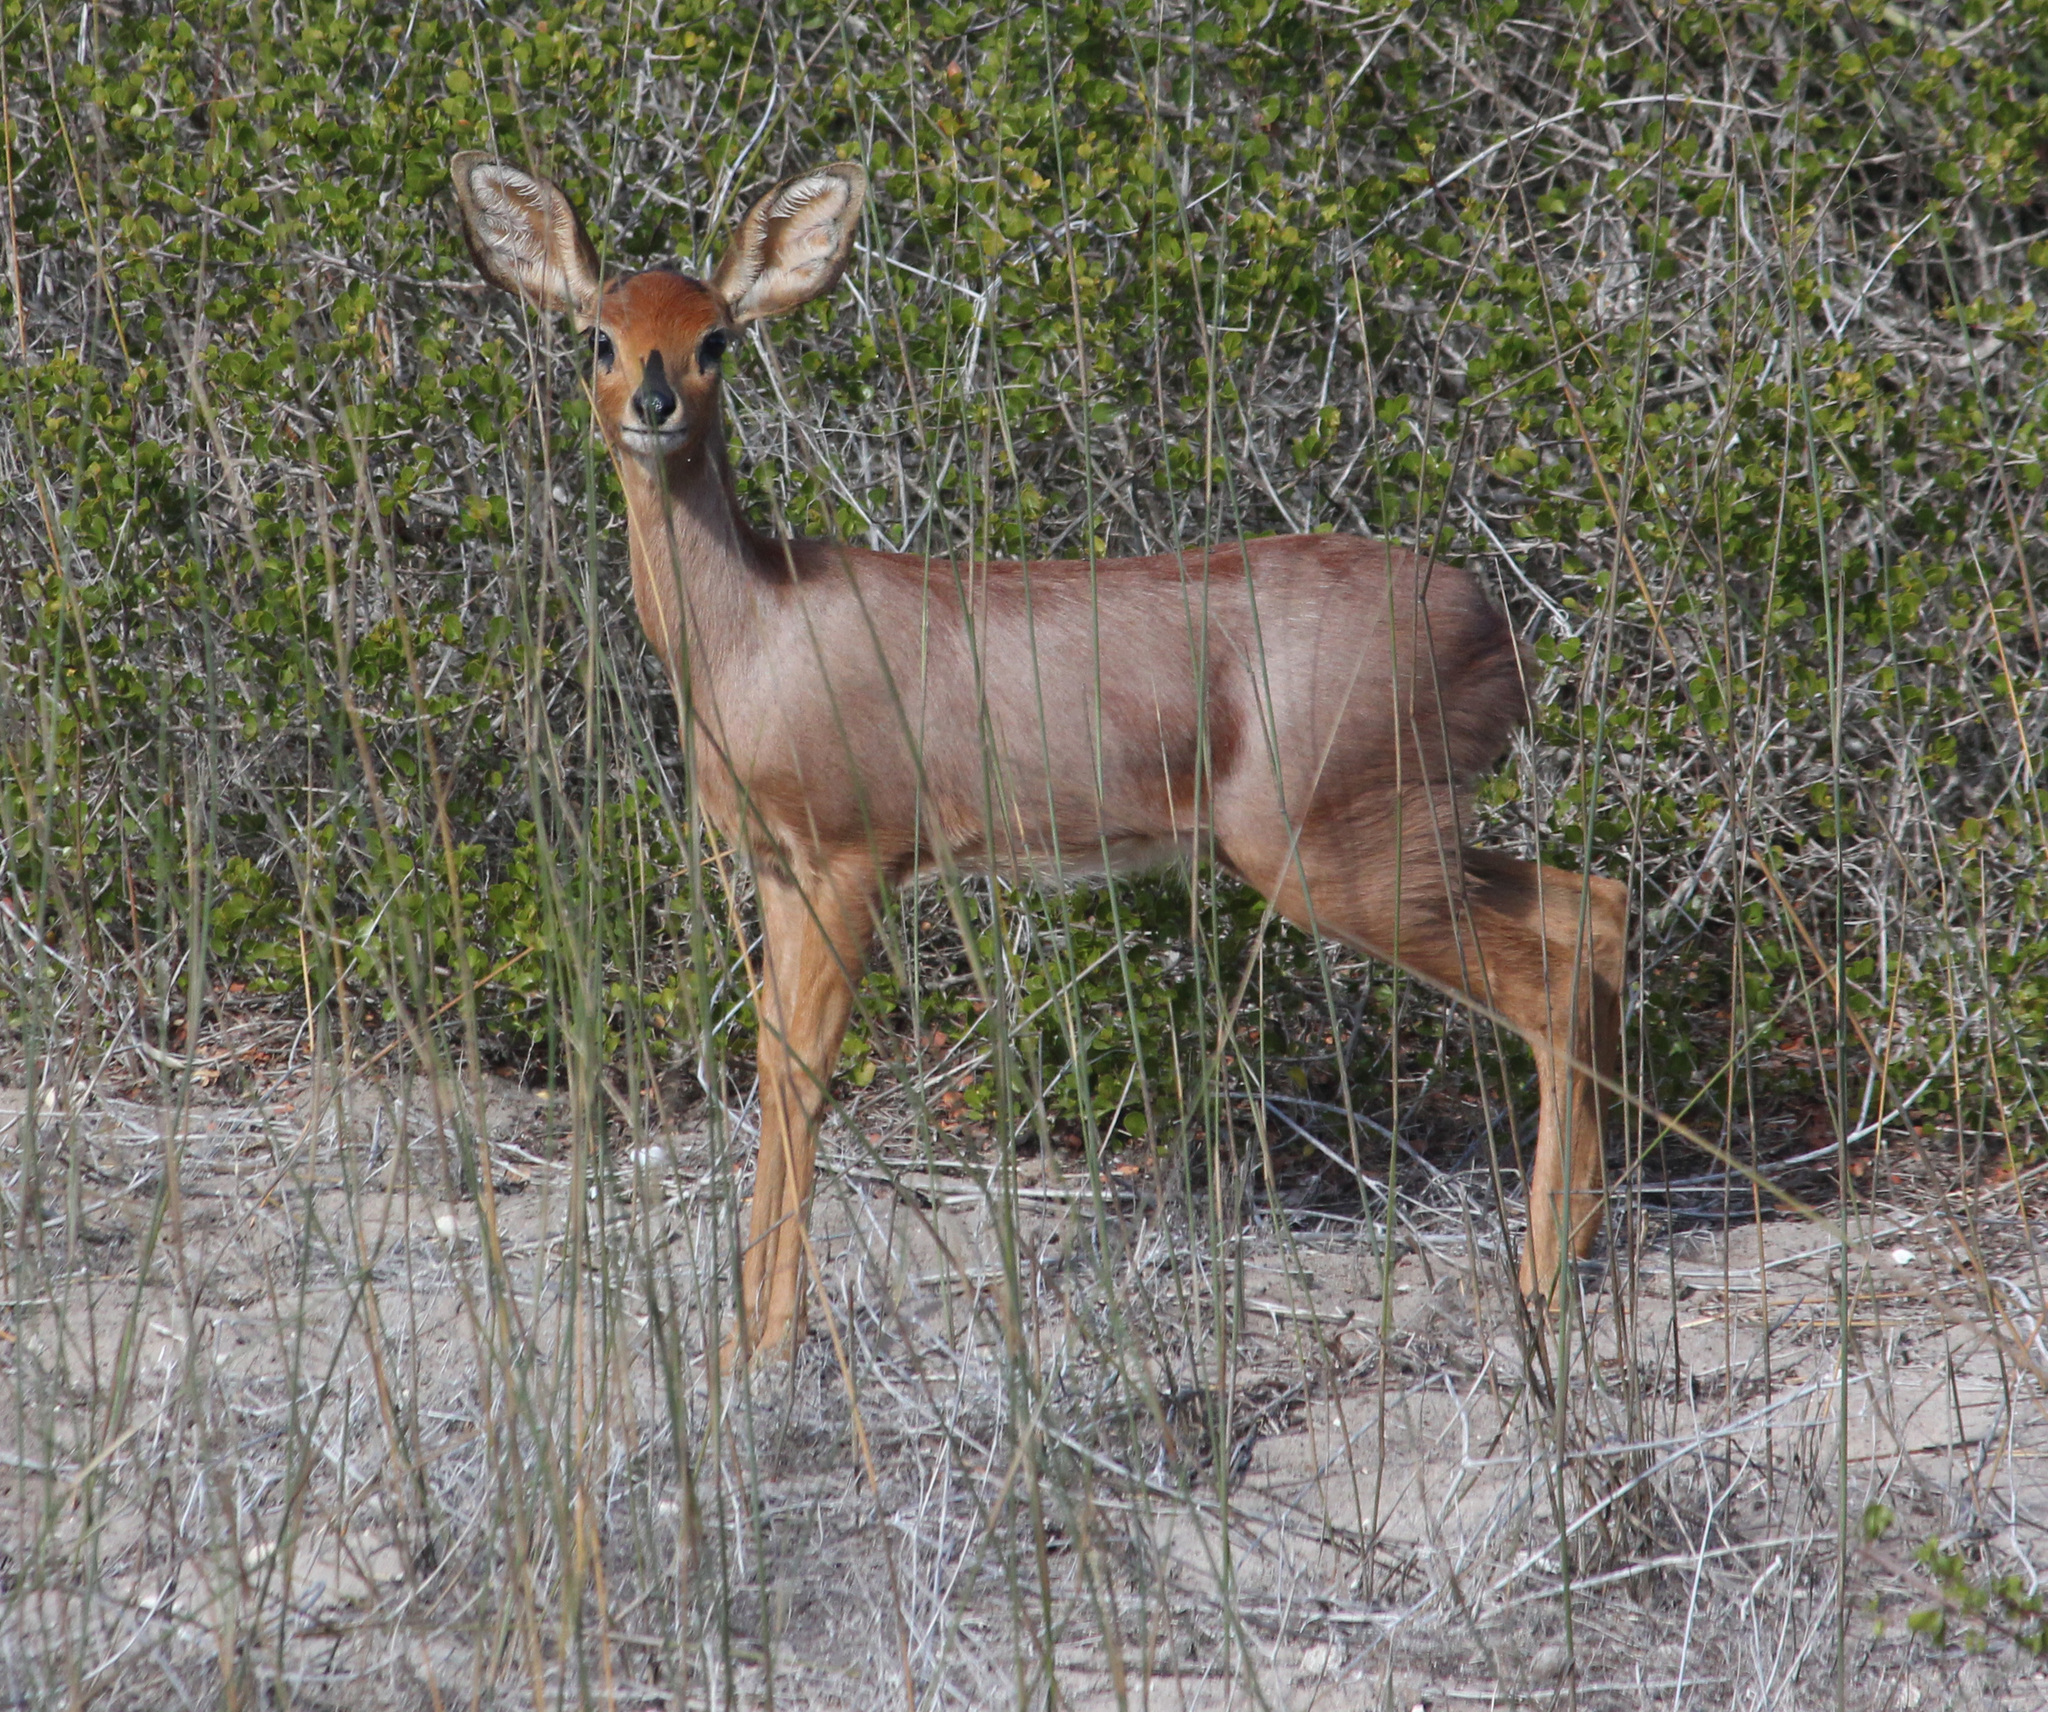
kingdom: Animalia
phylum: Chordata
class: Mammalia
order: Artiodactyla
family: Bovidae
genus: Raphicerus
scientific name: Raphicerus campestris
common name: Steenbok
